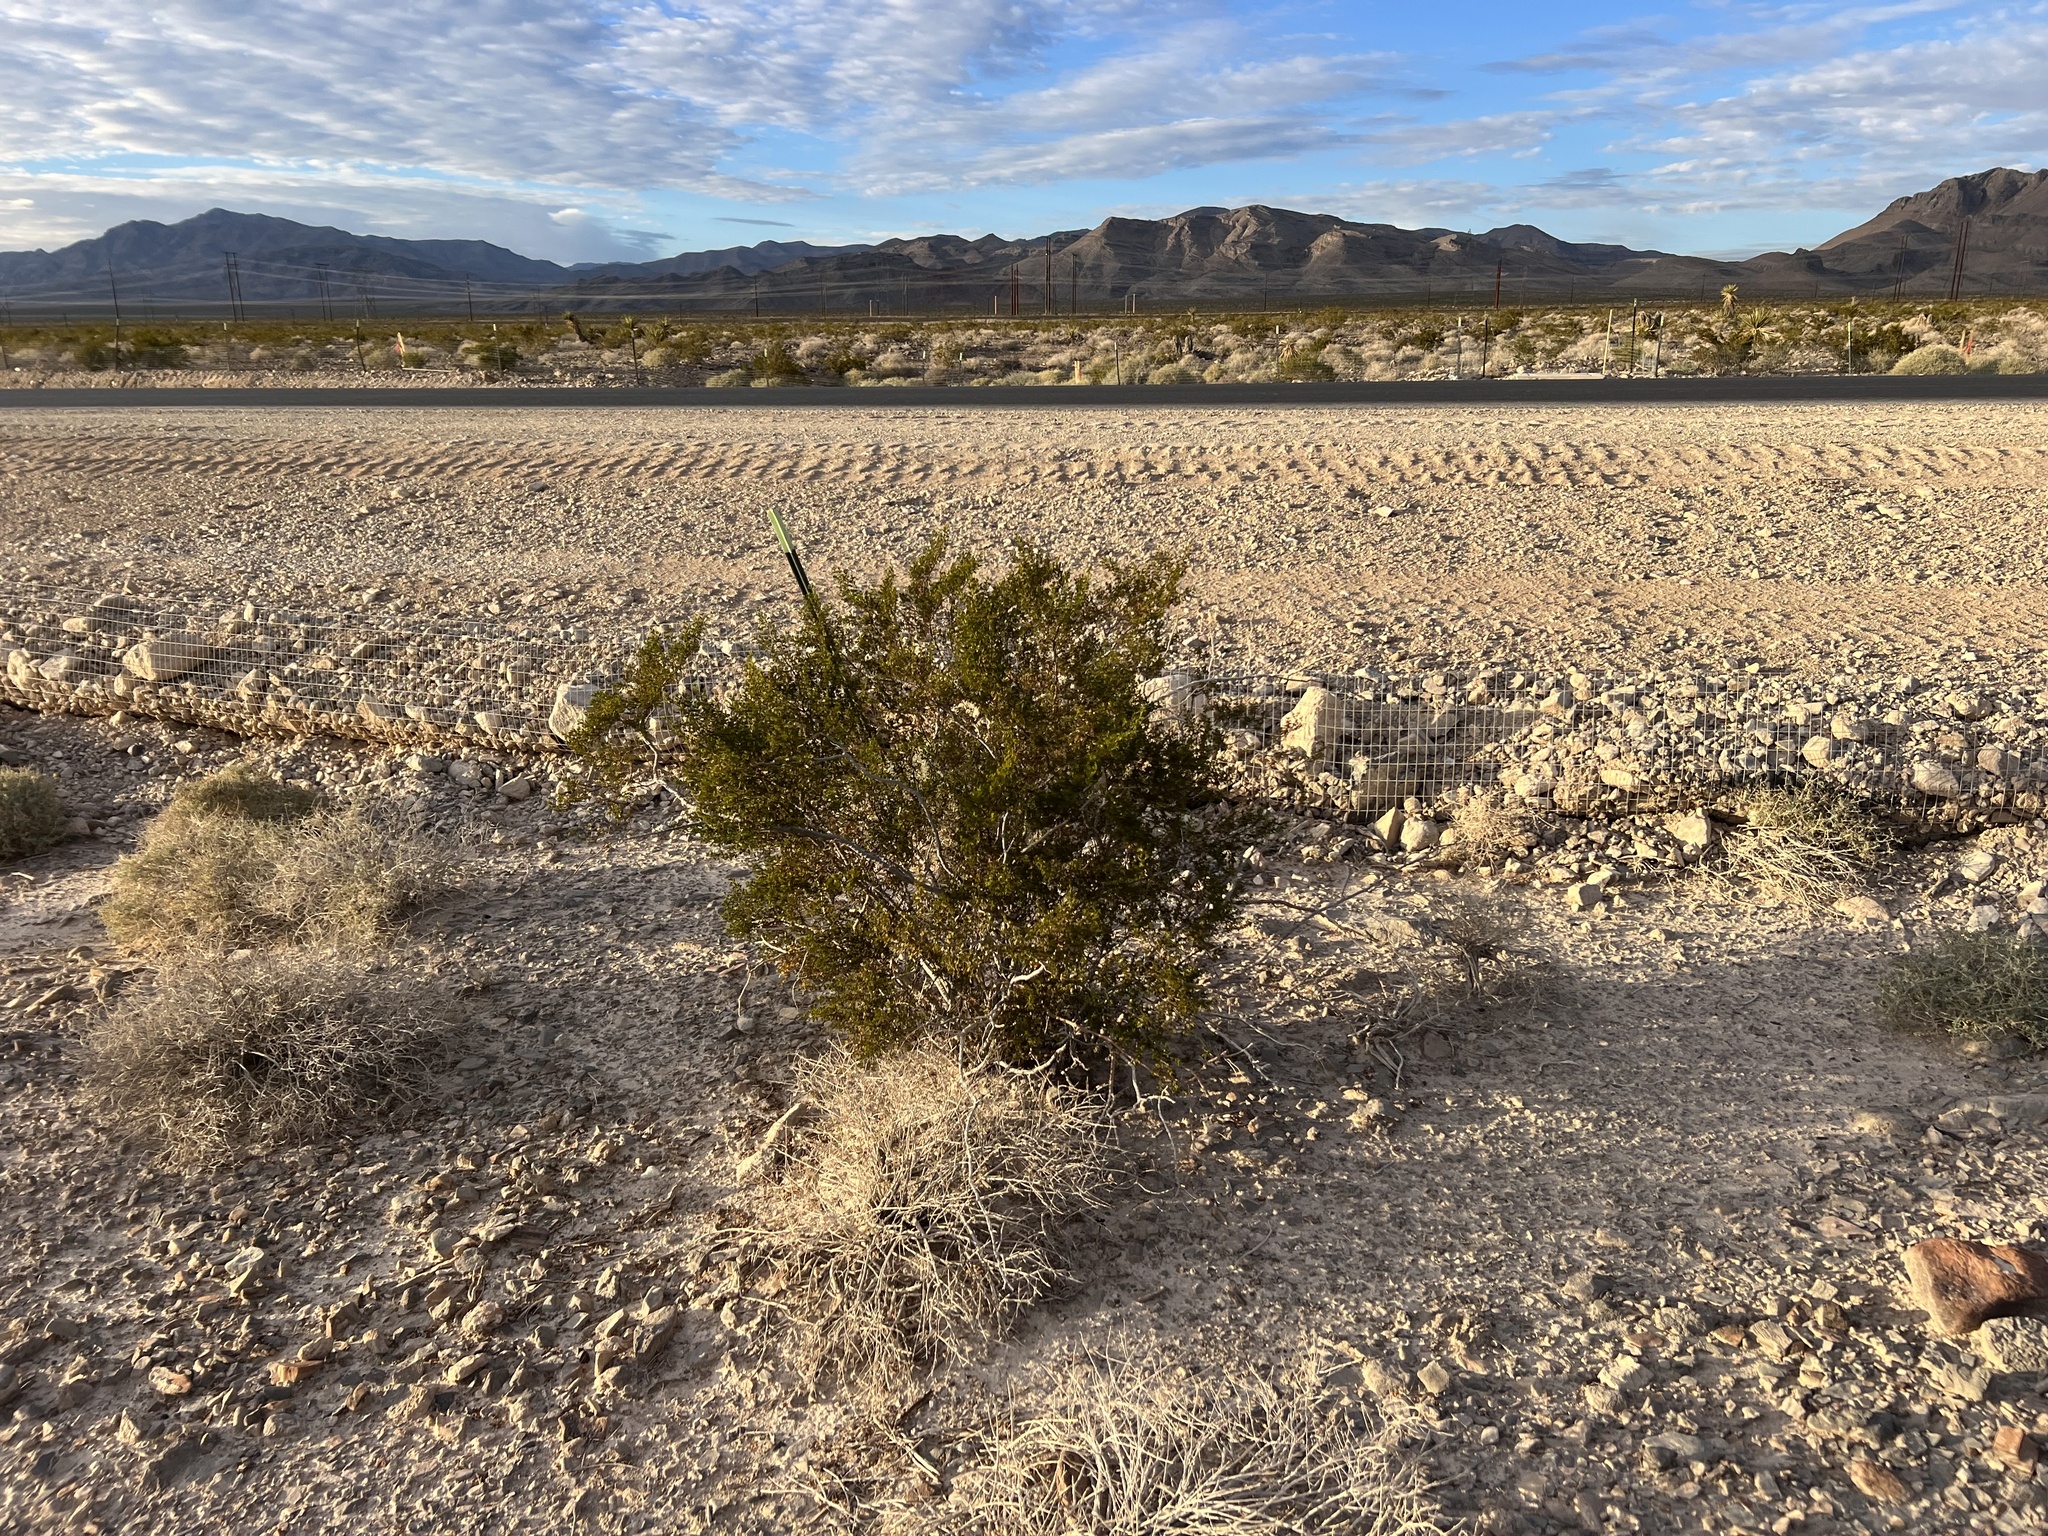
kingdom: Plantae
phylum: Tracheophyta
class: Magnoliopsida
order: Zygophyllales
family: Zygophyllaceae
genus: Larrea
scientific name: Larrea tridentata
